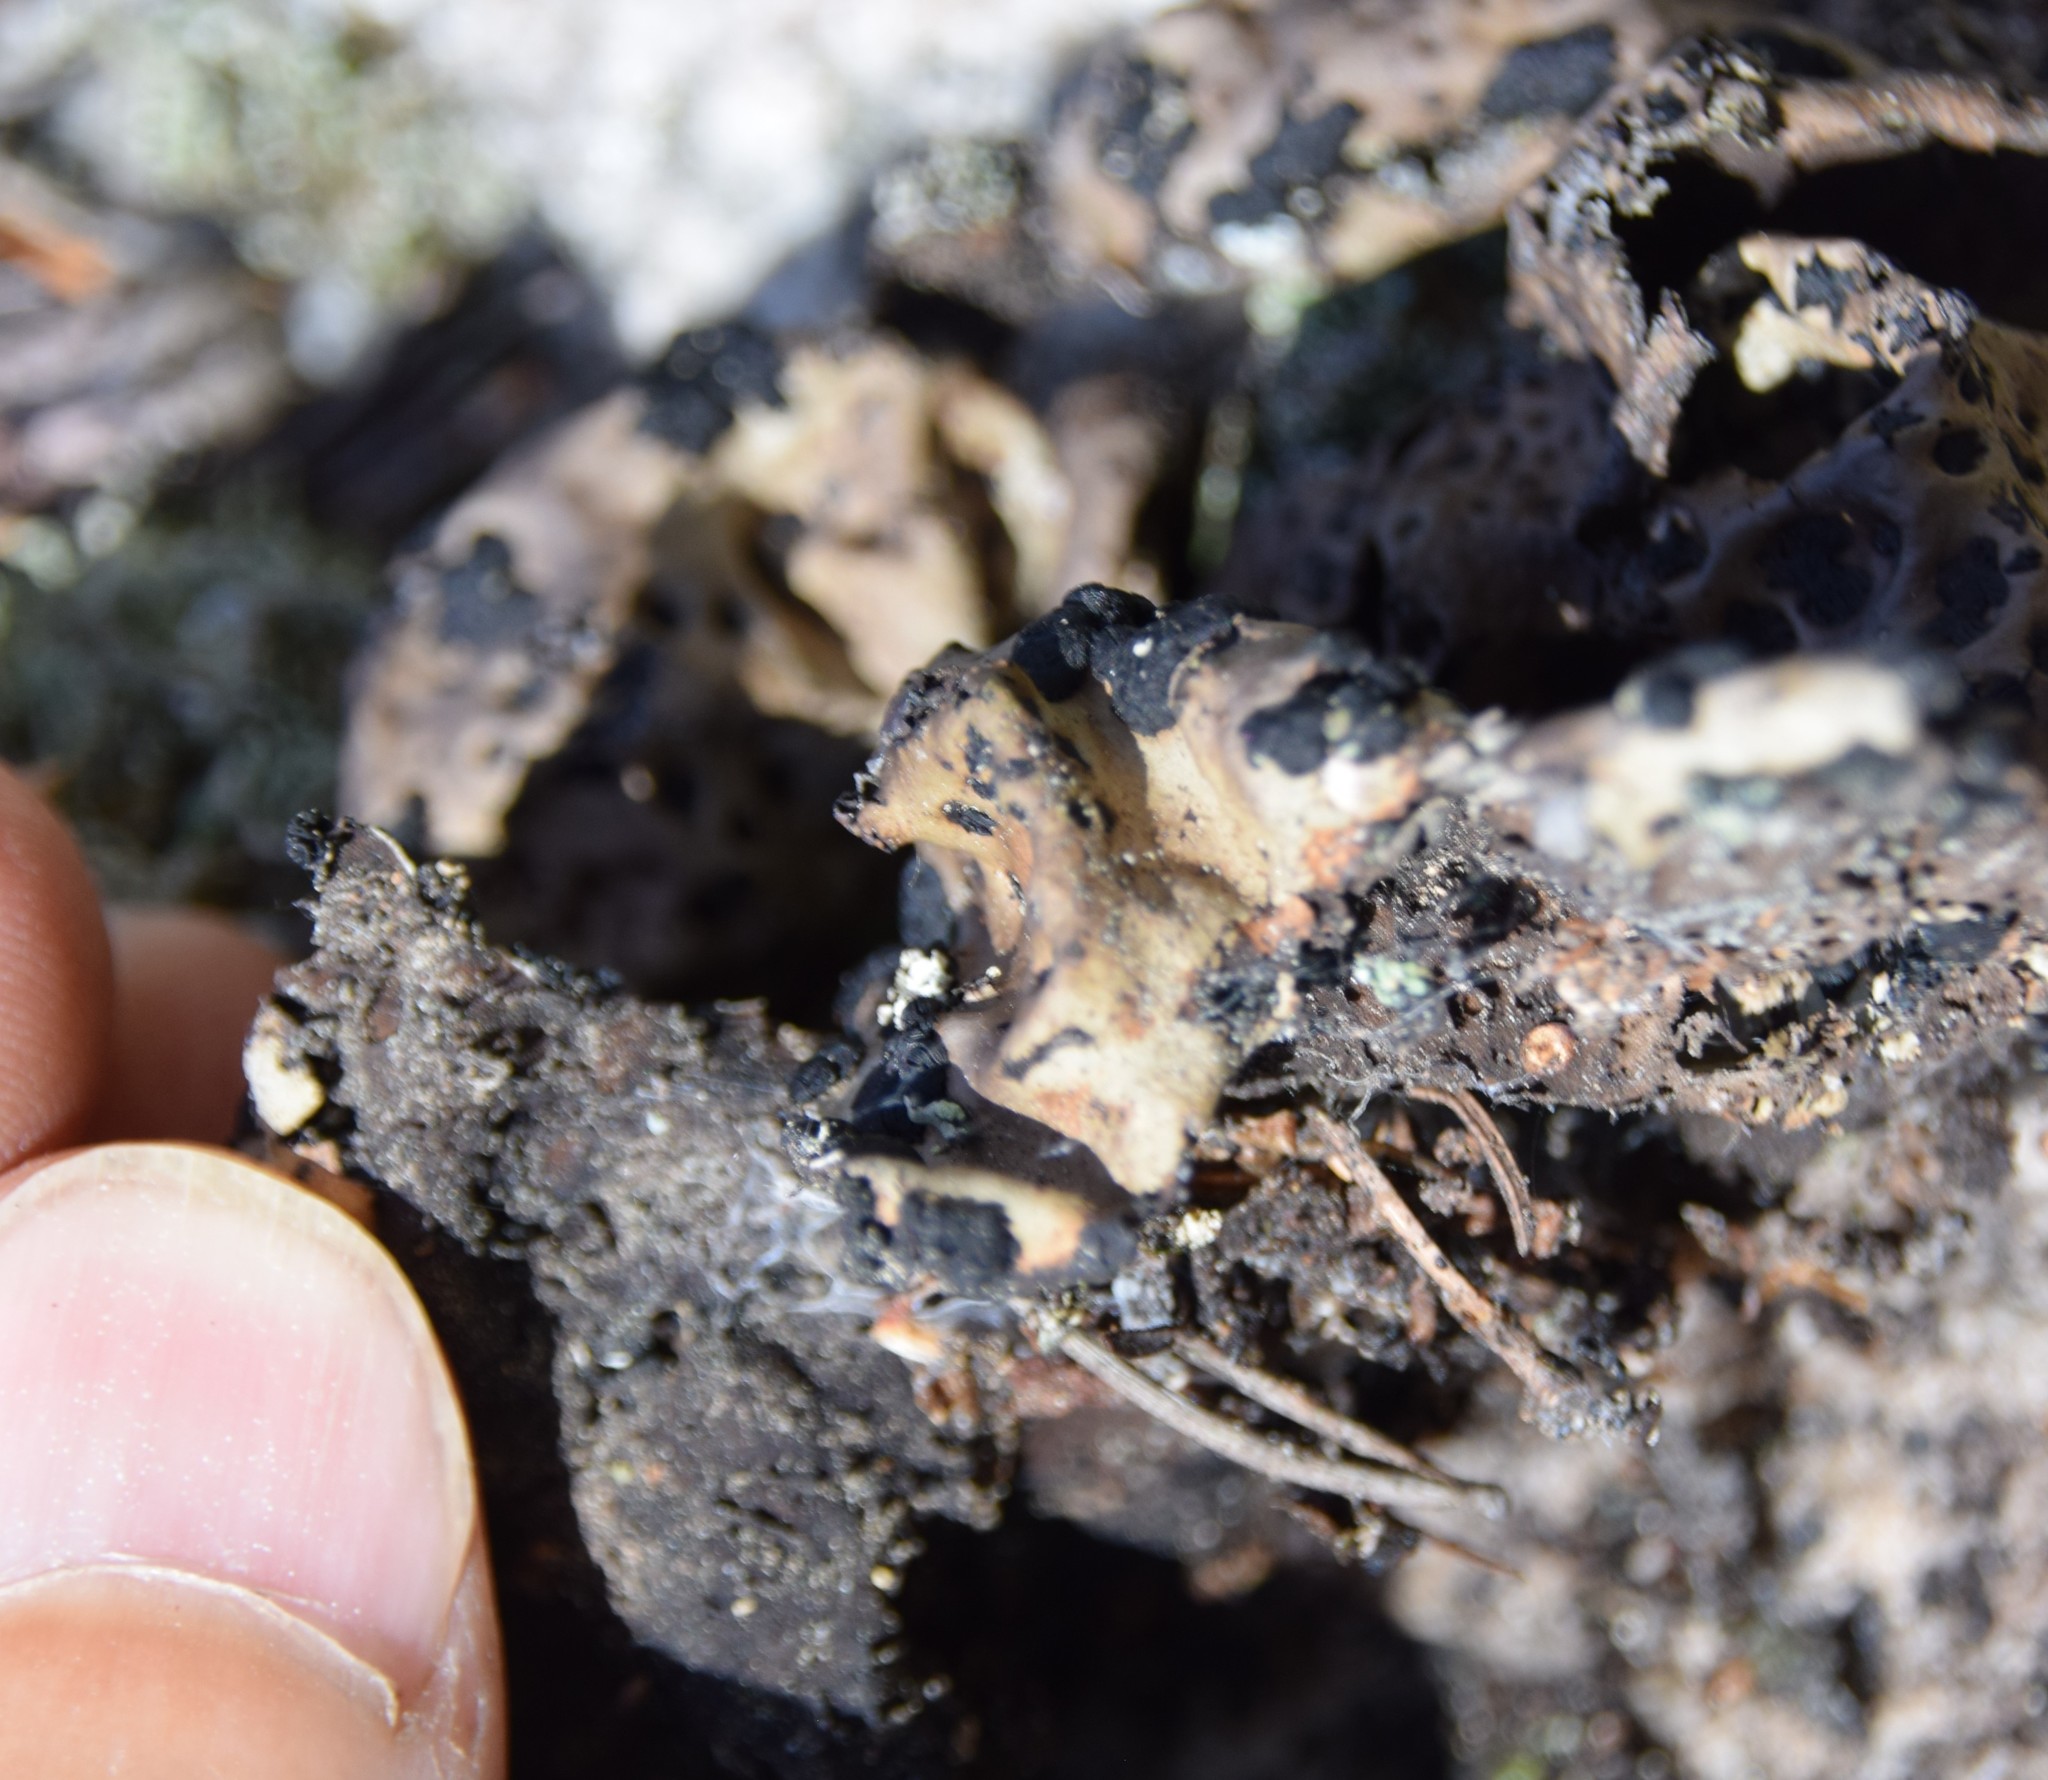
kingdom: Fungi
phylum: Ascomycota
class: Lecanoromycetes
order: Umbilicariales
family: Umbilicariaceae
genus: Umbilicaria
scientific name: Umbilicaria muhlenbergii
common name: Lesser rocktripe
